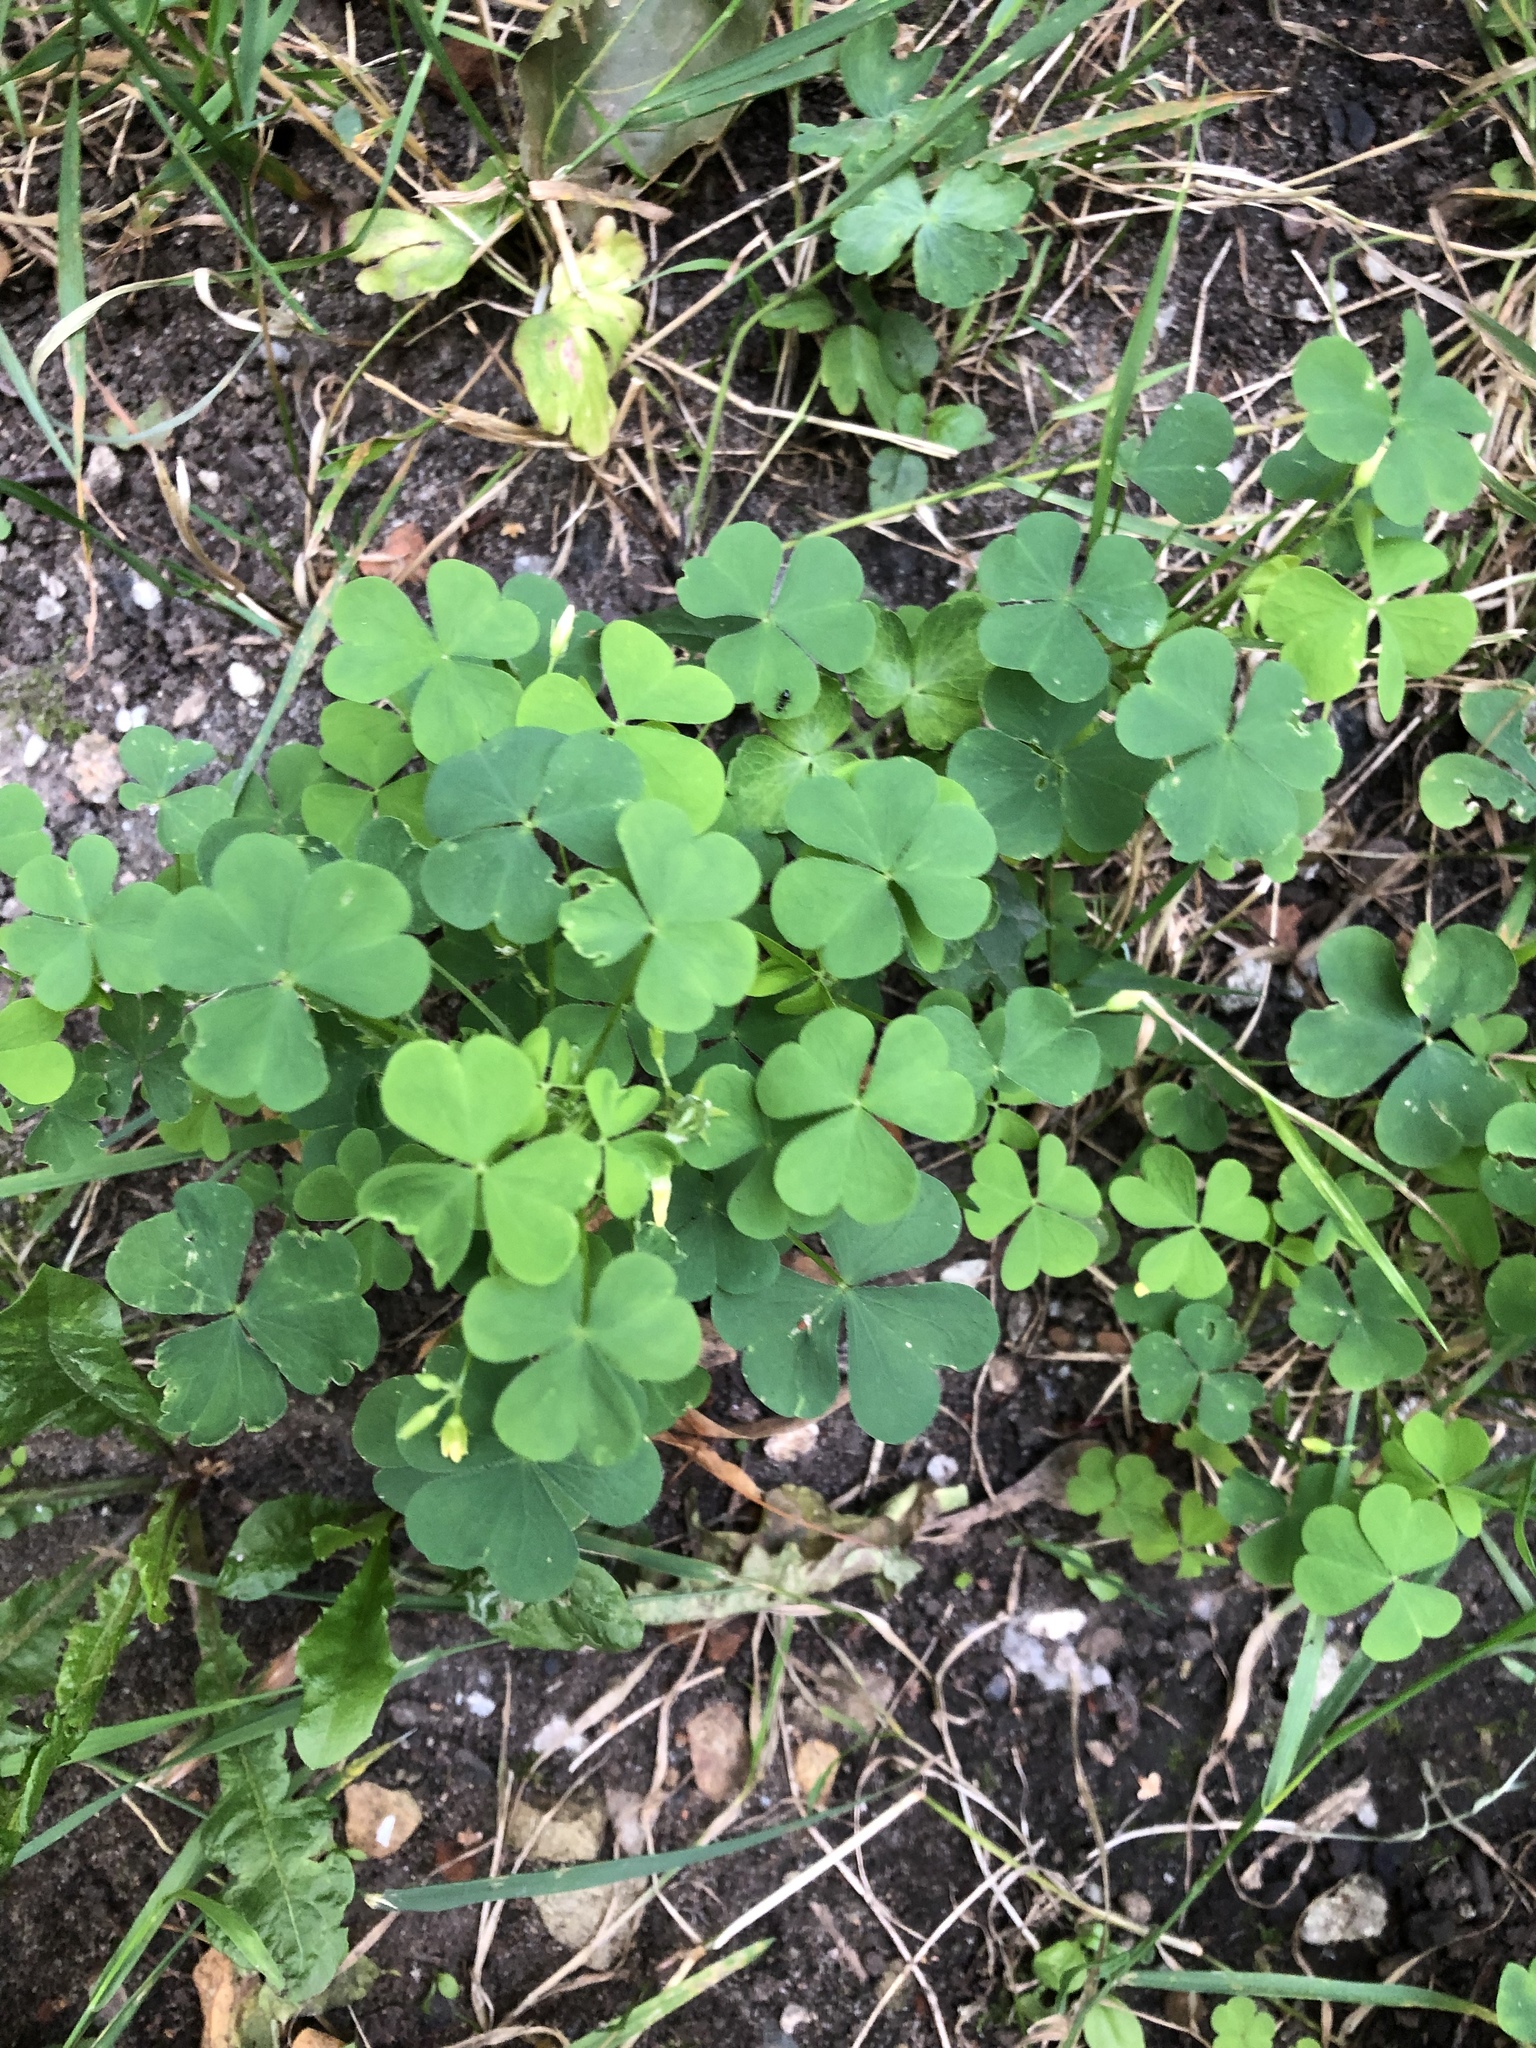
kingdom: Plantae
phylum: Tracheophyta
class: Magnoliopsida
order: Oxalidales
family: Oxalidaceae
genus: Oxalis
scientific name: Oxalis stricta
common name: Upright yellow-sorrel
